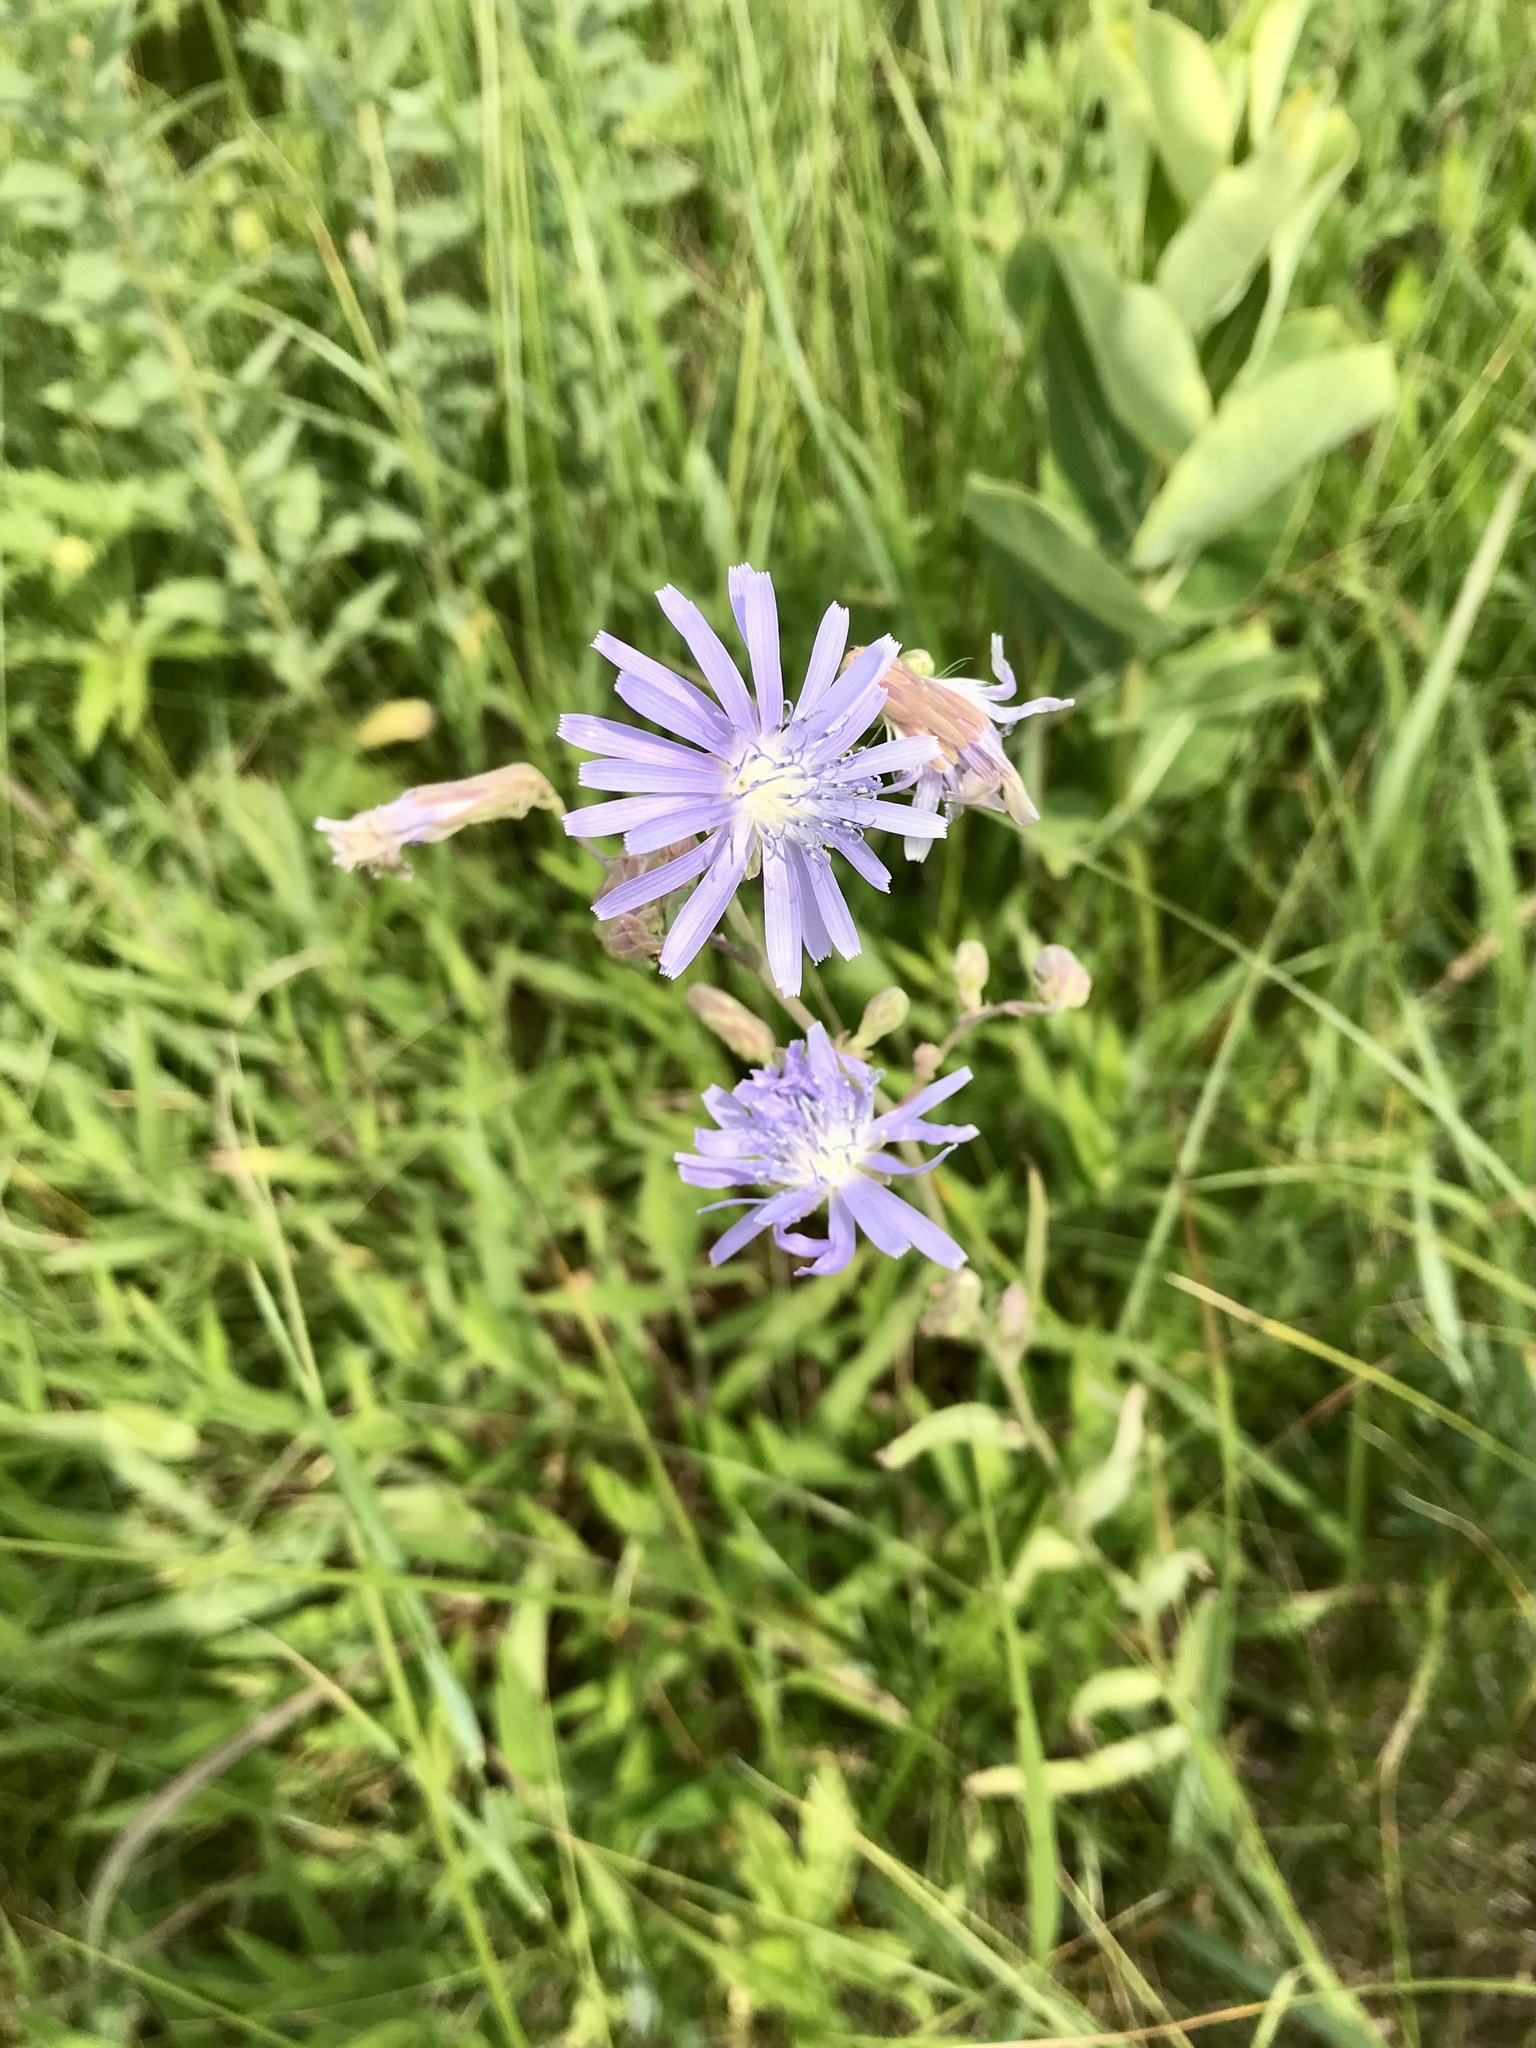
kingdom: Plantae
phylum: Tracheophyta
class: Magnoliopsida
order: Asterales
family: Asteraceae
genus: Lactuca
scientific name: Lactuca pulchella
